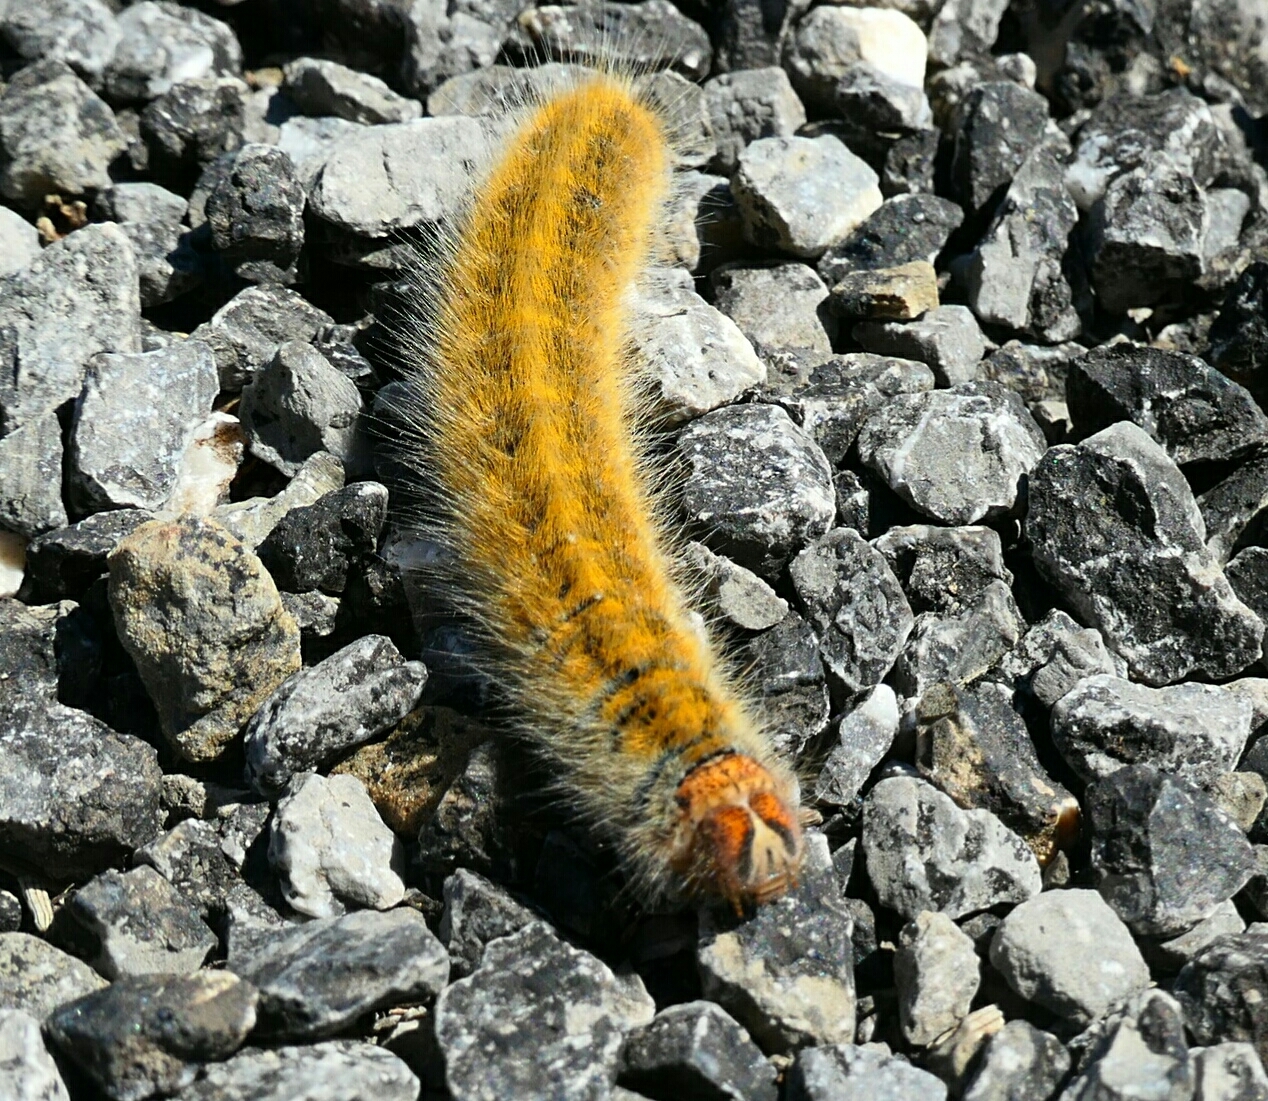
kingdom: Animalia
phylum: Arthropoda
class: Insecta
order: Lepidoptera
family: Lasiocampidae
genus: Lasiocampa
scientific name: Lasiocampa trifolii
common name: Grass eggar
